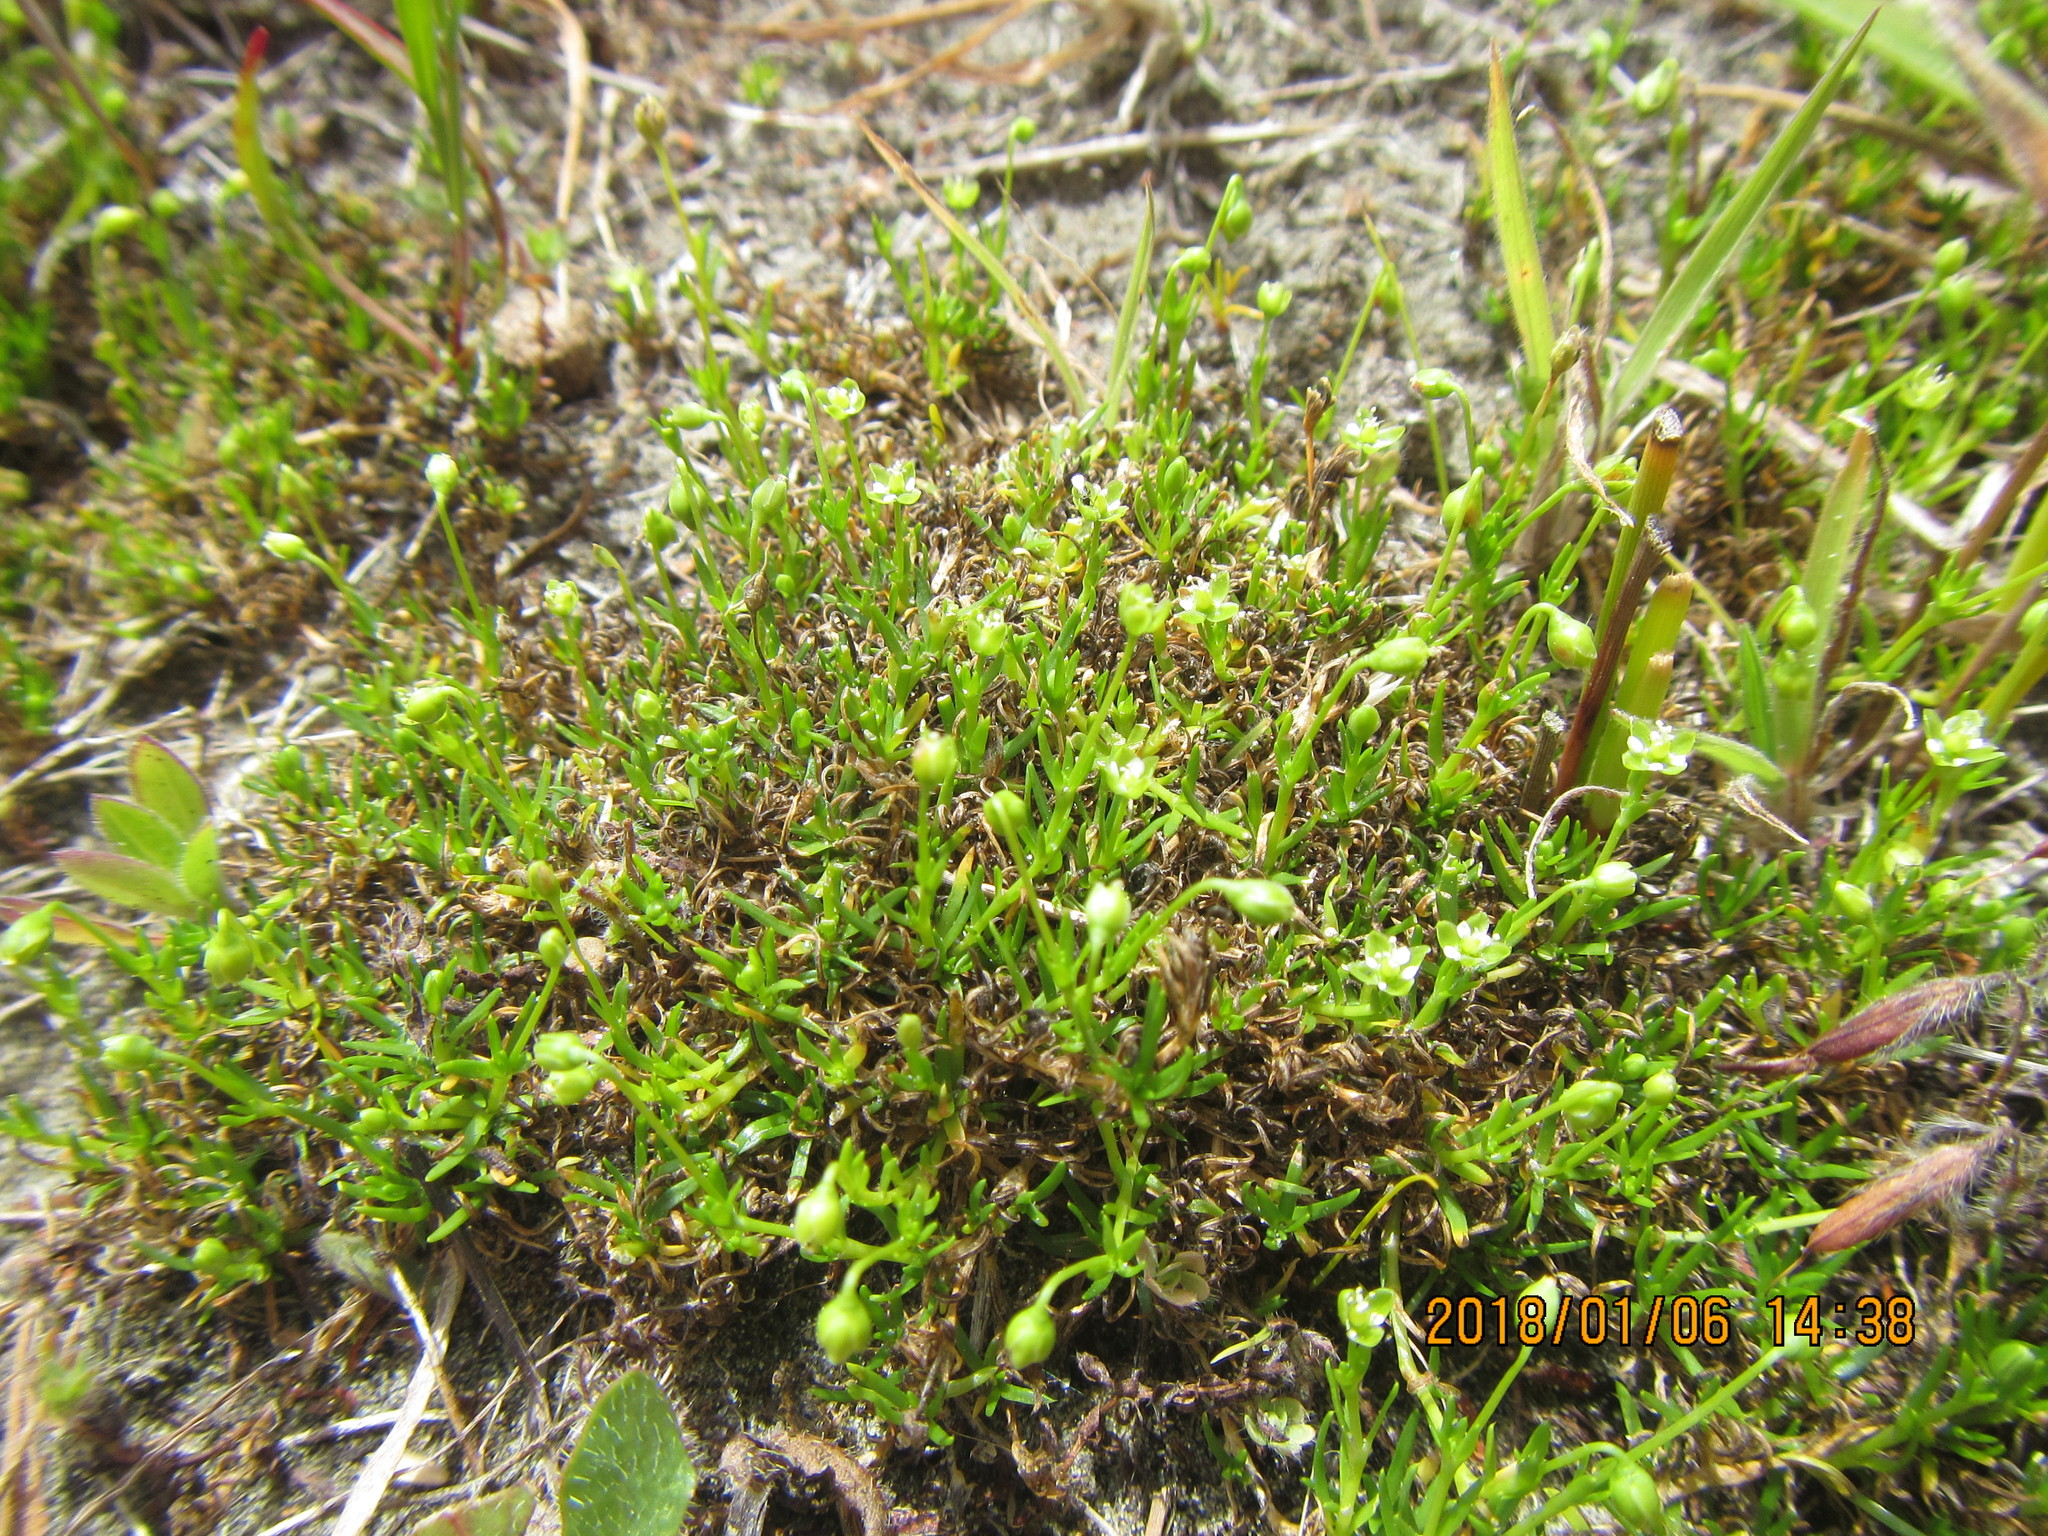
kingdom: Plantae
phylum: Tracheophyta
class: Magnoliopsida
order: Caryophyllales
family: Caryophyllaceae
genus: Sagina
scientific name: Sagina procumbens
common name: Procumbent pearlwort
